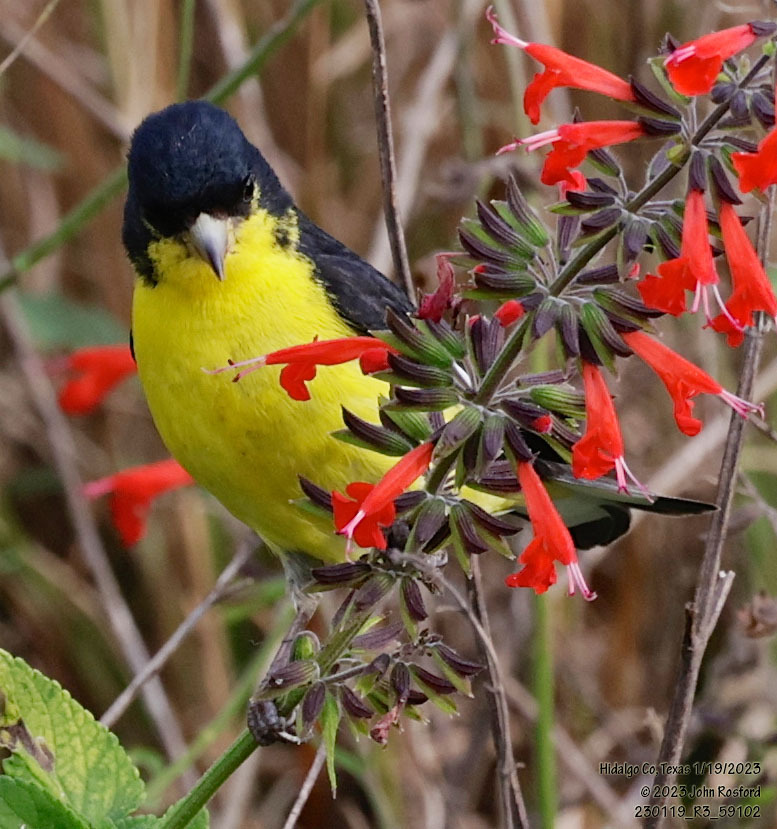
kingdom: Animalia
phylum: Chordata
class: Aves
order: Passeriformes
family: Fringillidae
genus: Spinus
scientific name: Spinus psaltria
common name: Lesser goldfinch
